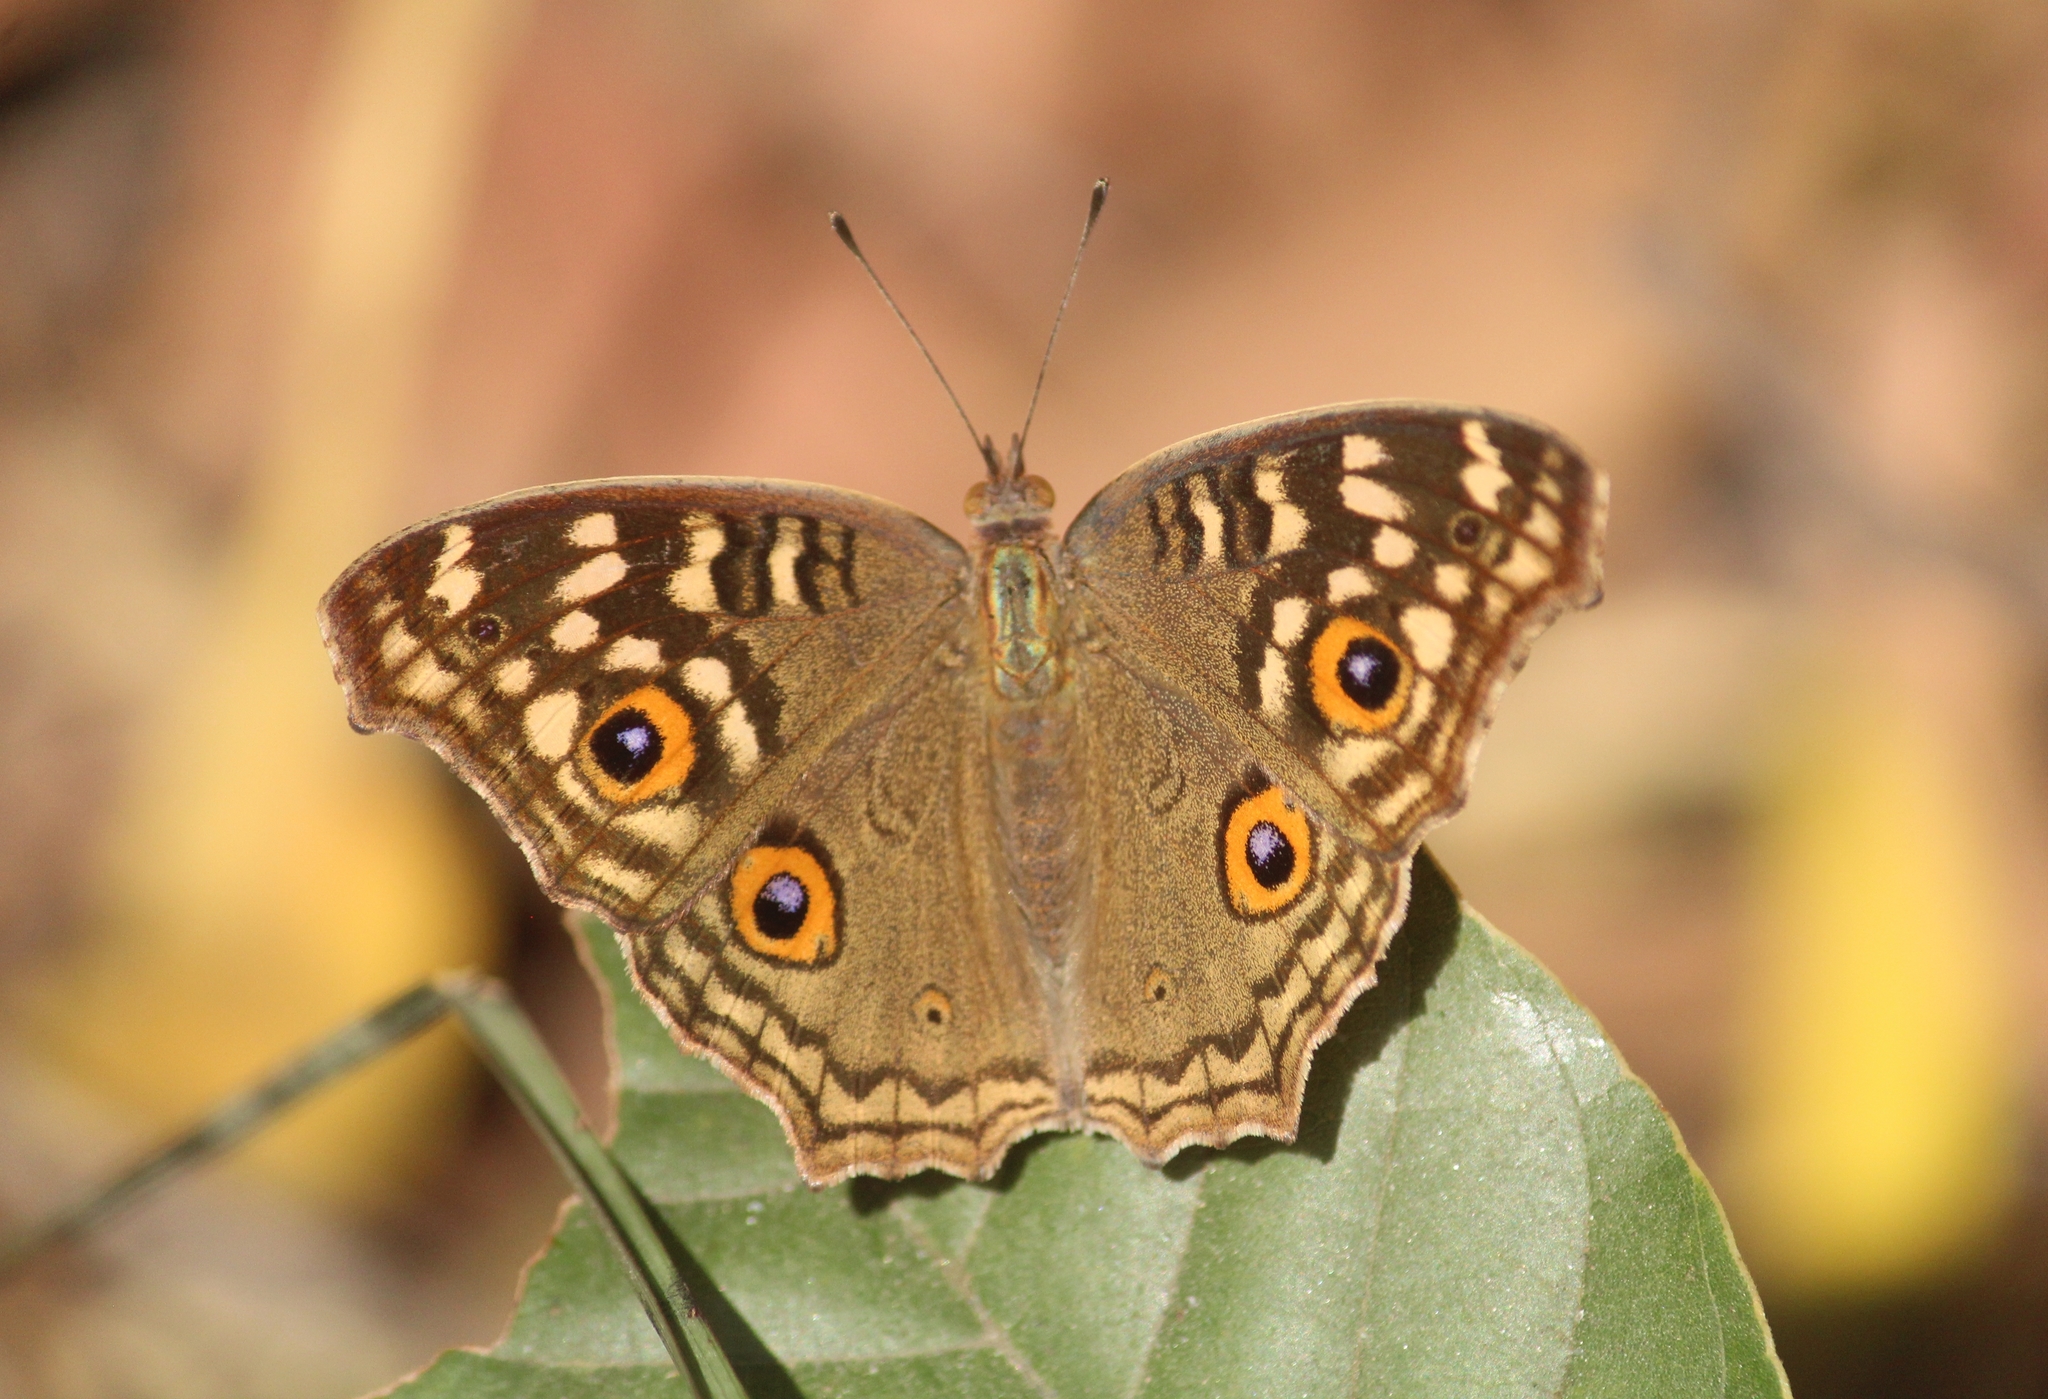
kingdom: Animalia
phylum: Arthropoda
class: Insecta
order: Lepidoptera
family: Nymphalidae
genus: Junonia
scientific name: Junonia lemonias
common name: Lemon pansy
